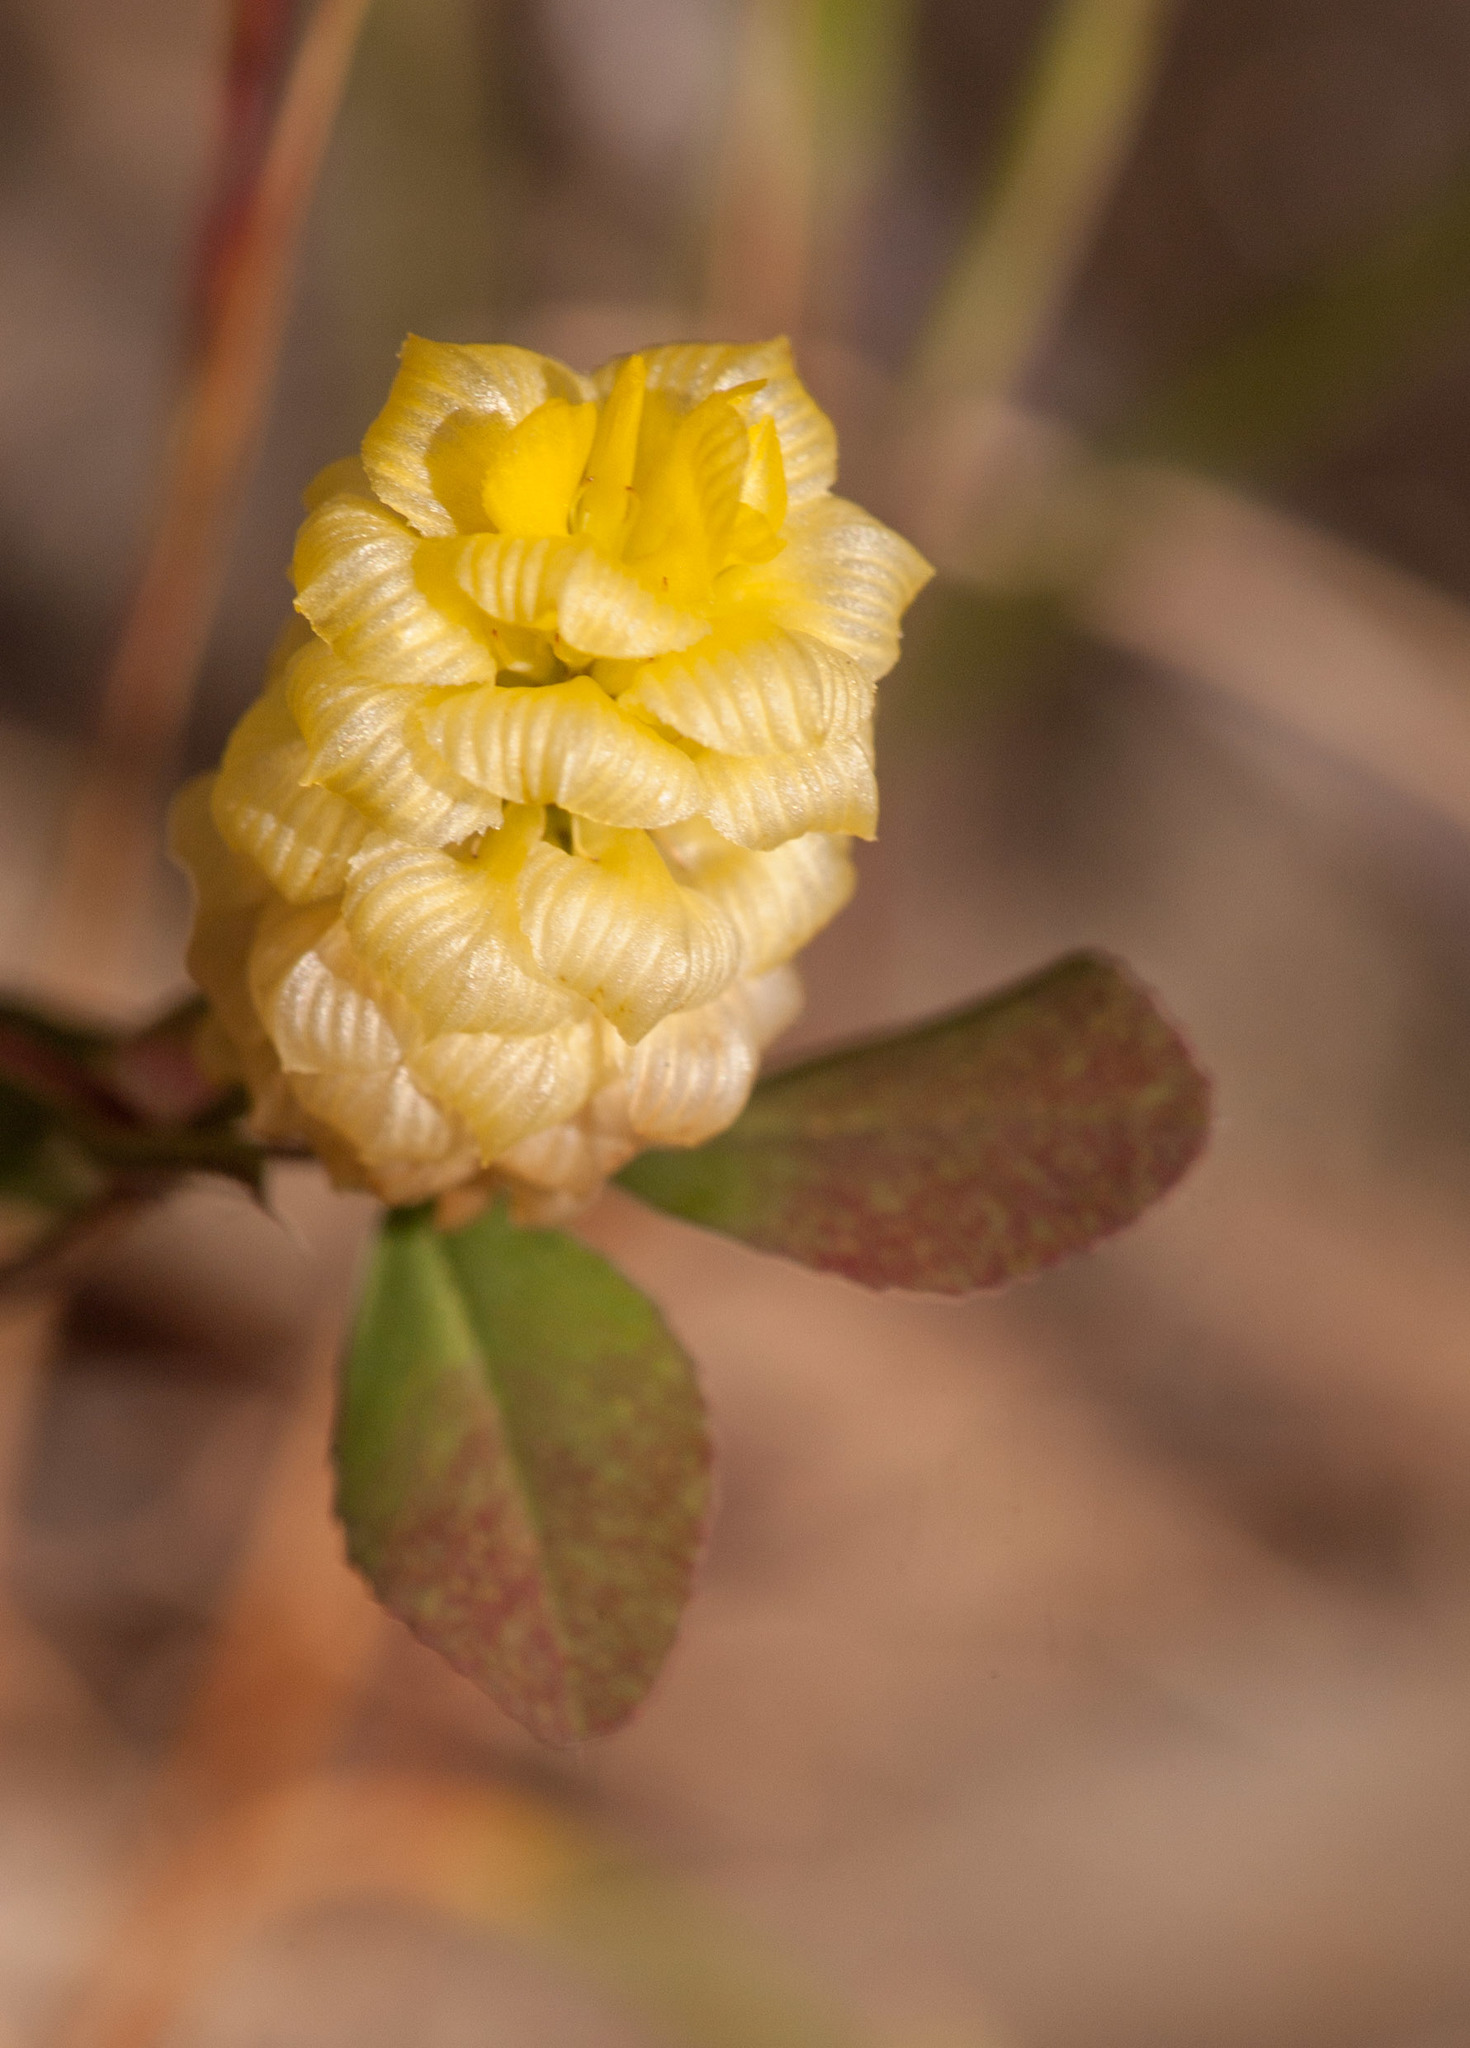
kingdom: Plantae
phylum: Tracheophyta
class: Magnoliopsida
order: Fabales
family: Fabaceae
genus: Trifolium
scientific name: Trifolium campestre
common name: Field clover
